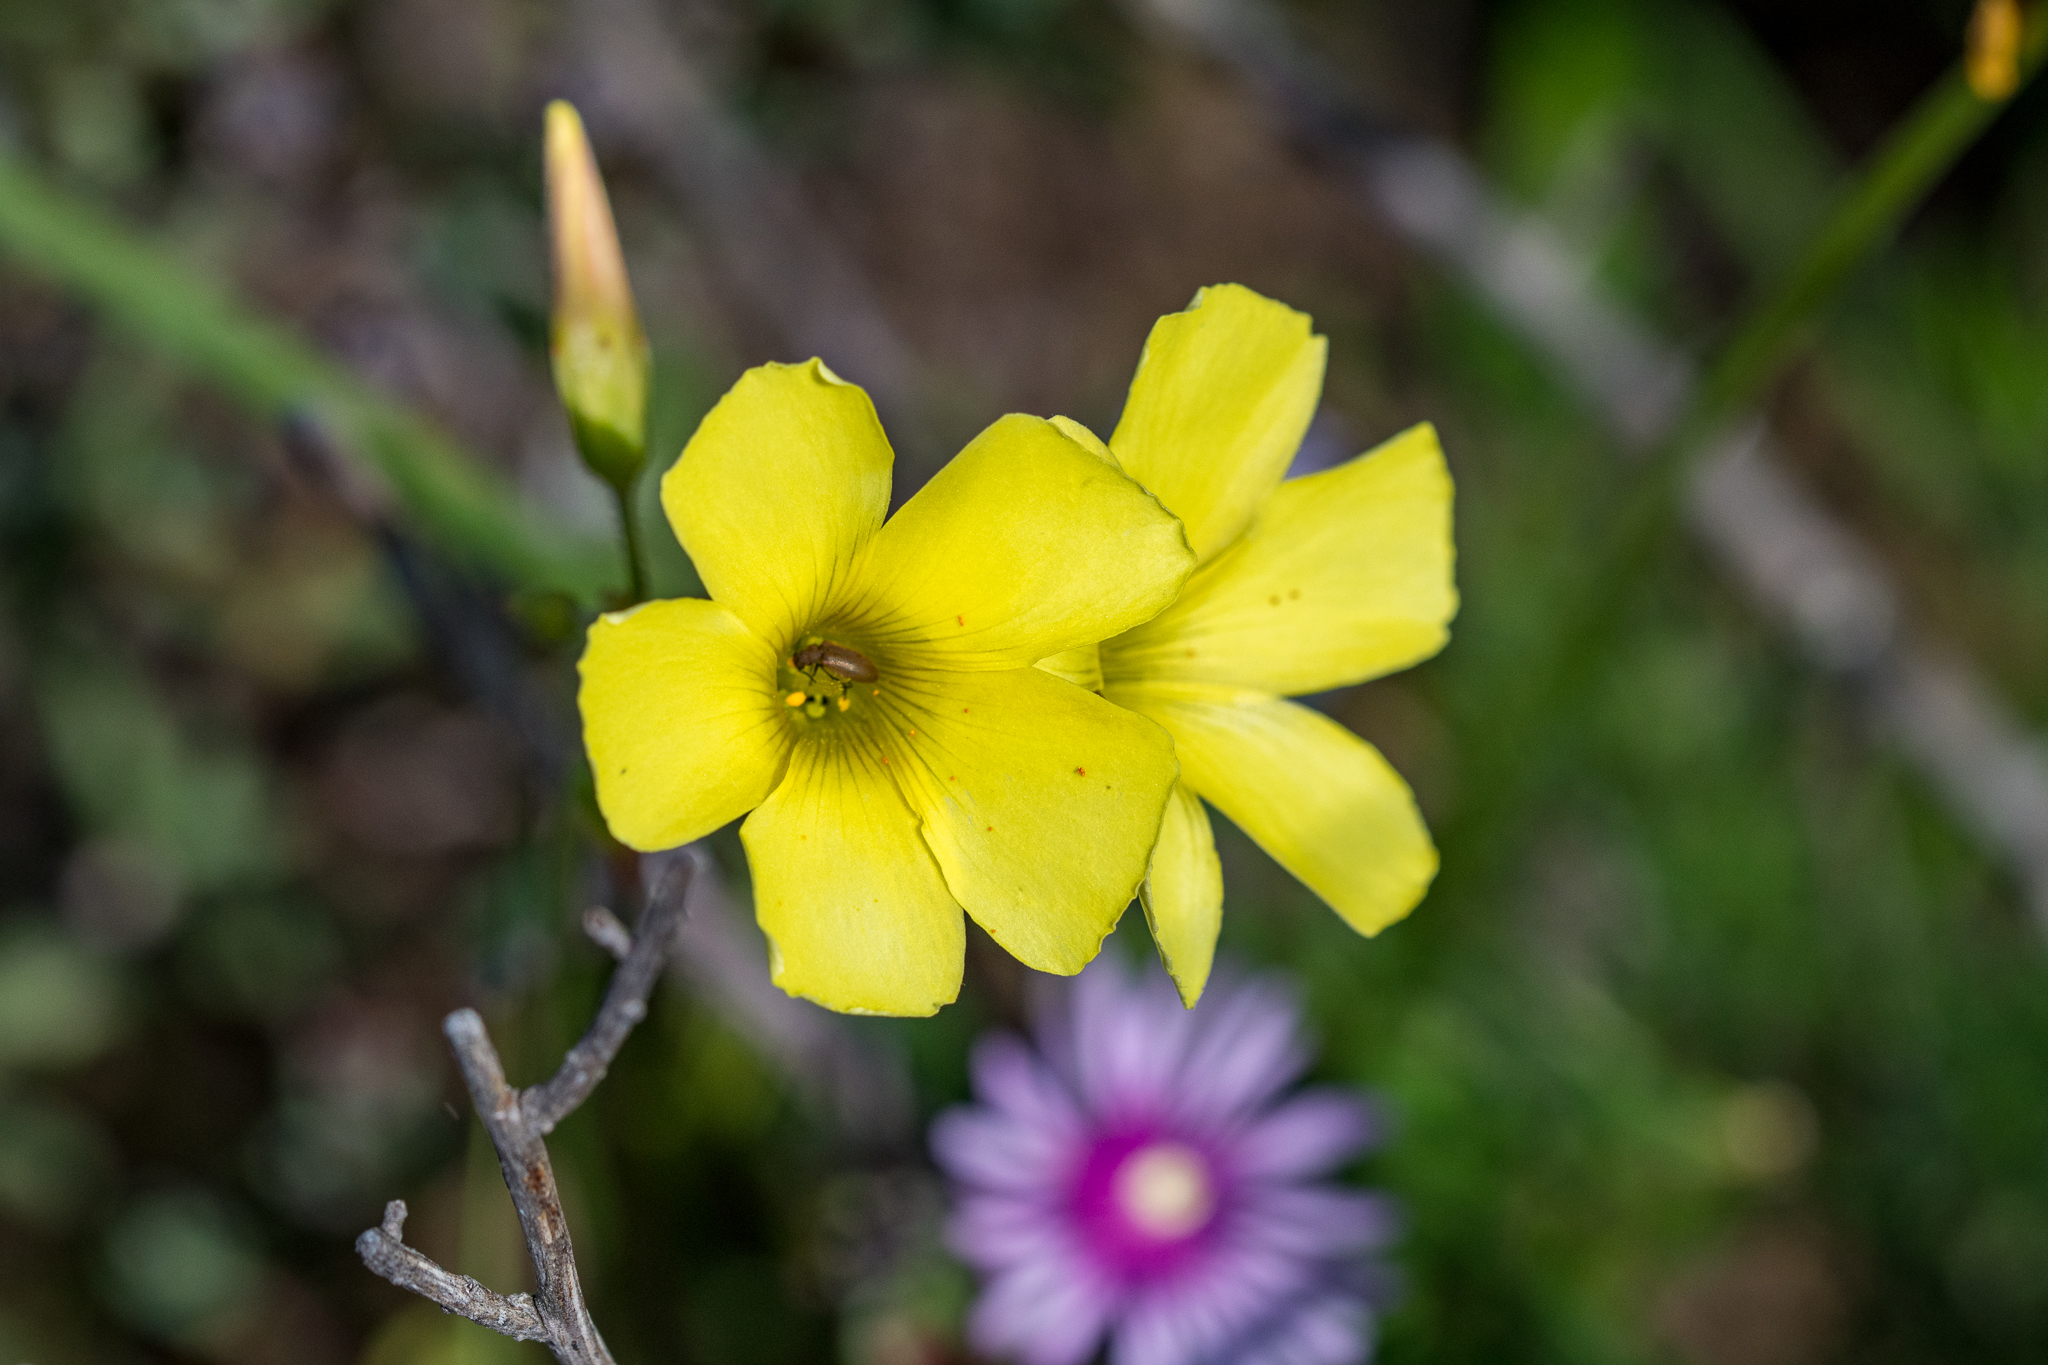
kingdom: Plantae
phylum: Tracheophyta
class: Magnoliopsida
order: Oxalidales
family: Oxalidaceae
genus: Oxalis
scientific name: Oxalis pes-caprae
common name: Bermuda-buttercup
